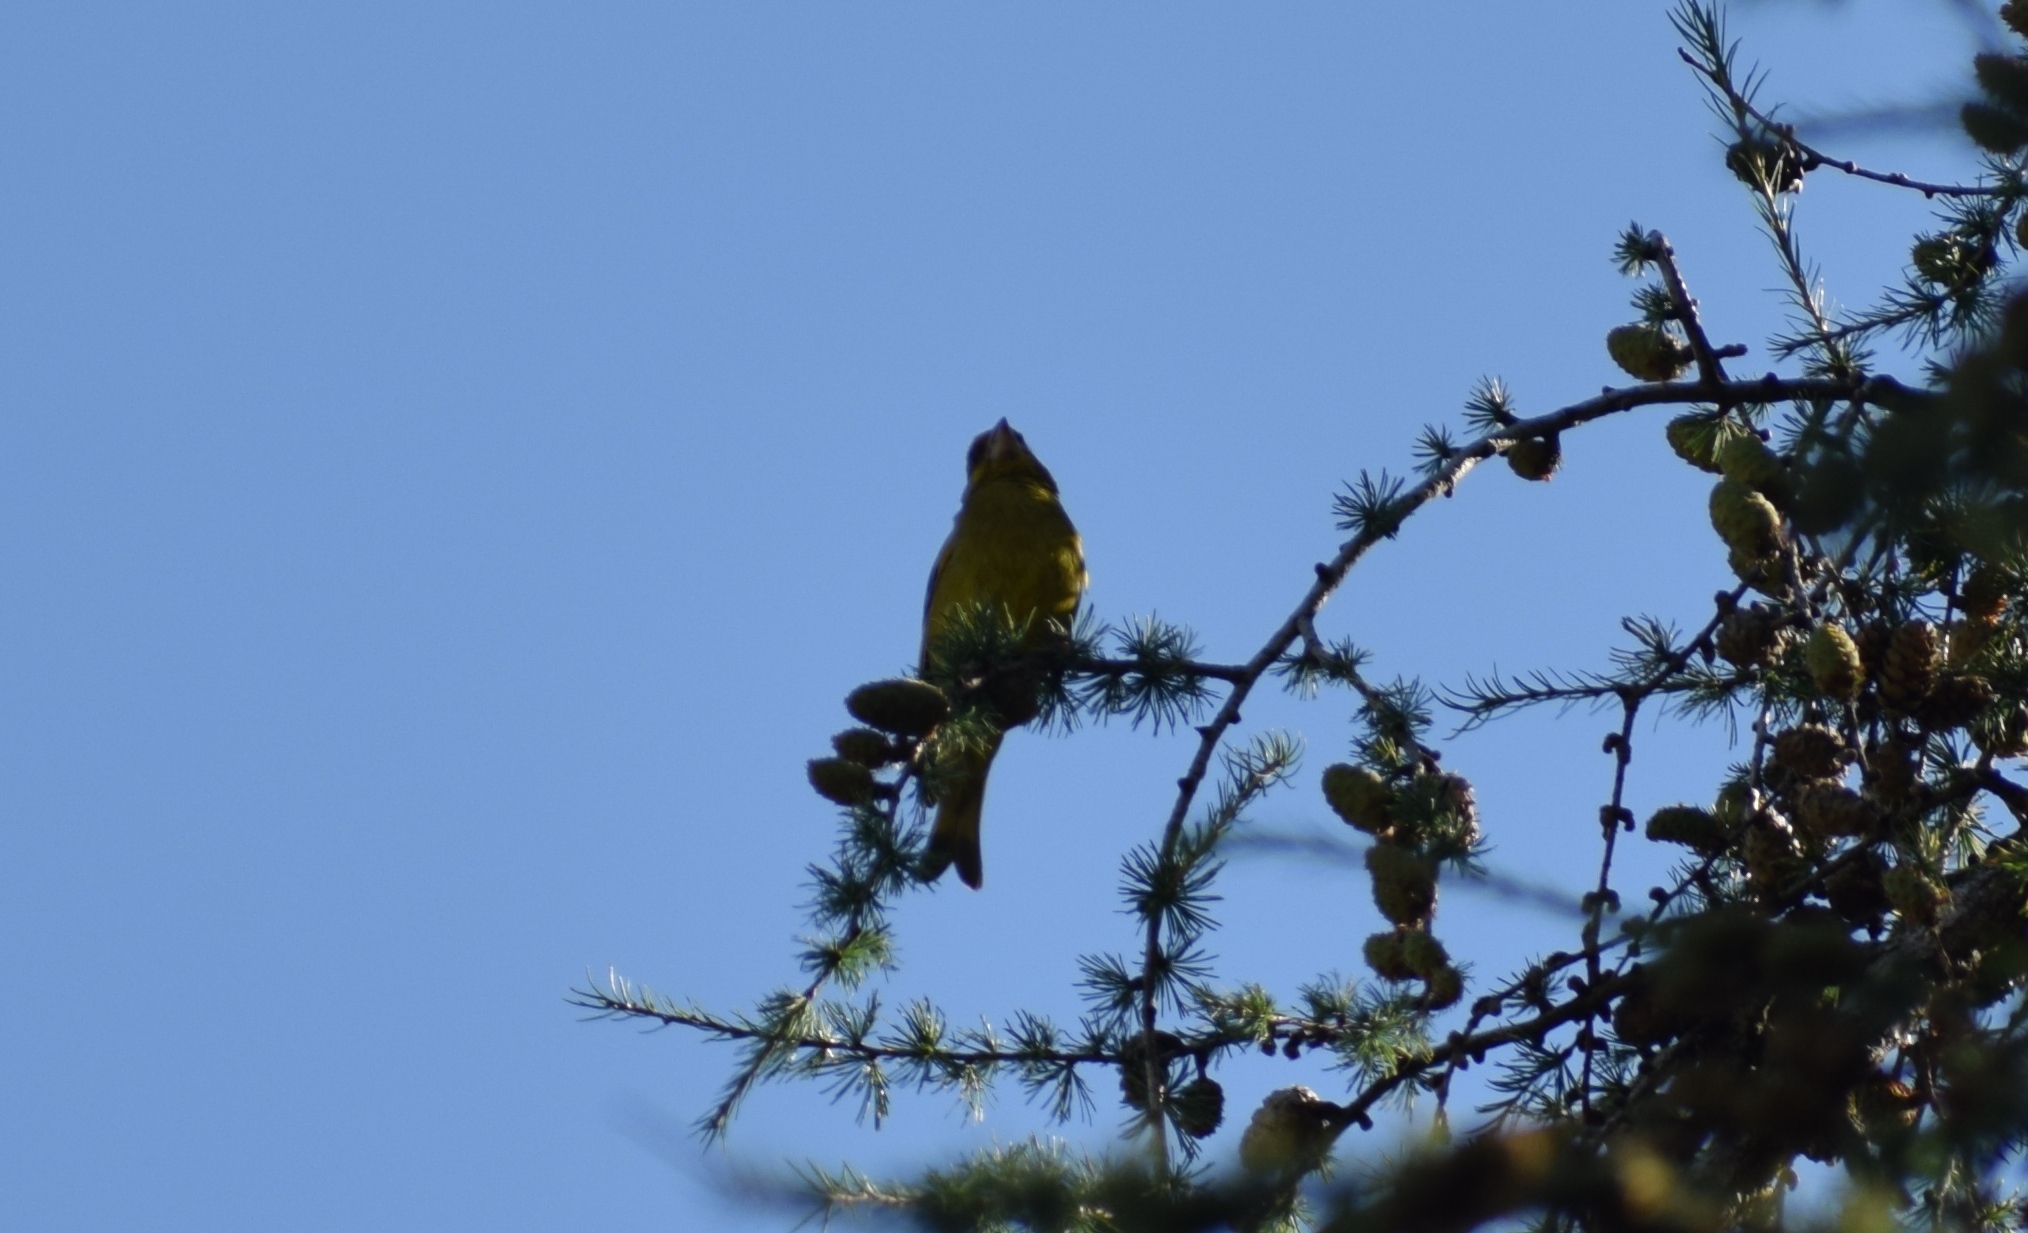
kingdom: Plantae
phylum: Tracheophyta
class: Liliopsida
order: Poales
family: Poaceae
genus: Chloris
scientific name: Chloris chloris
